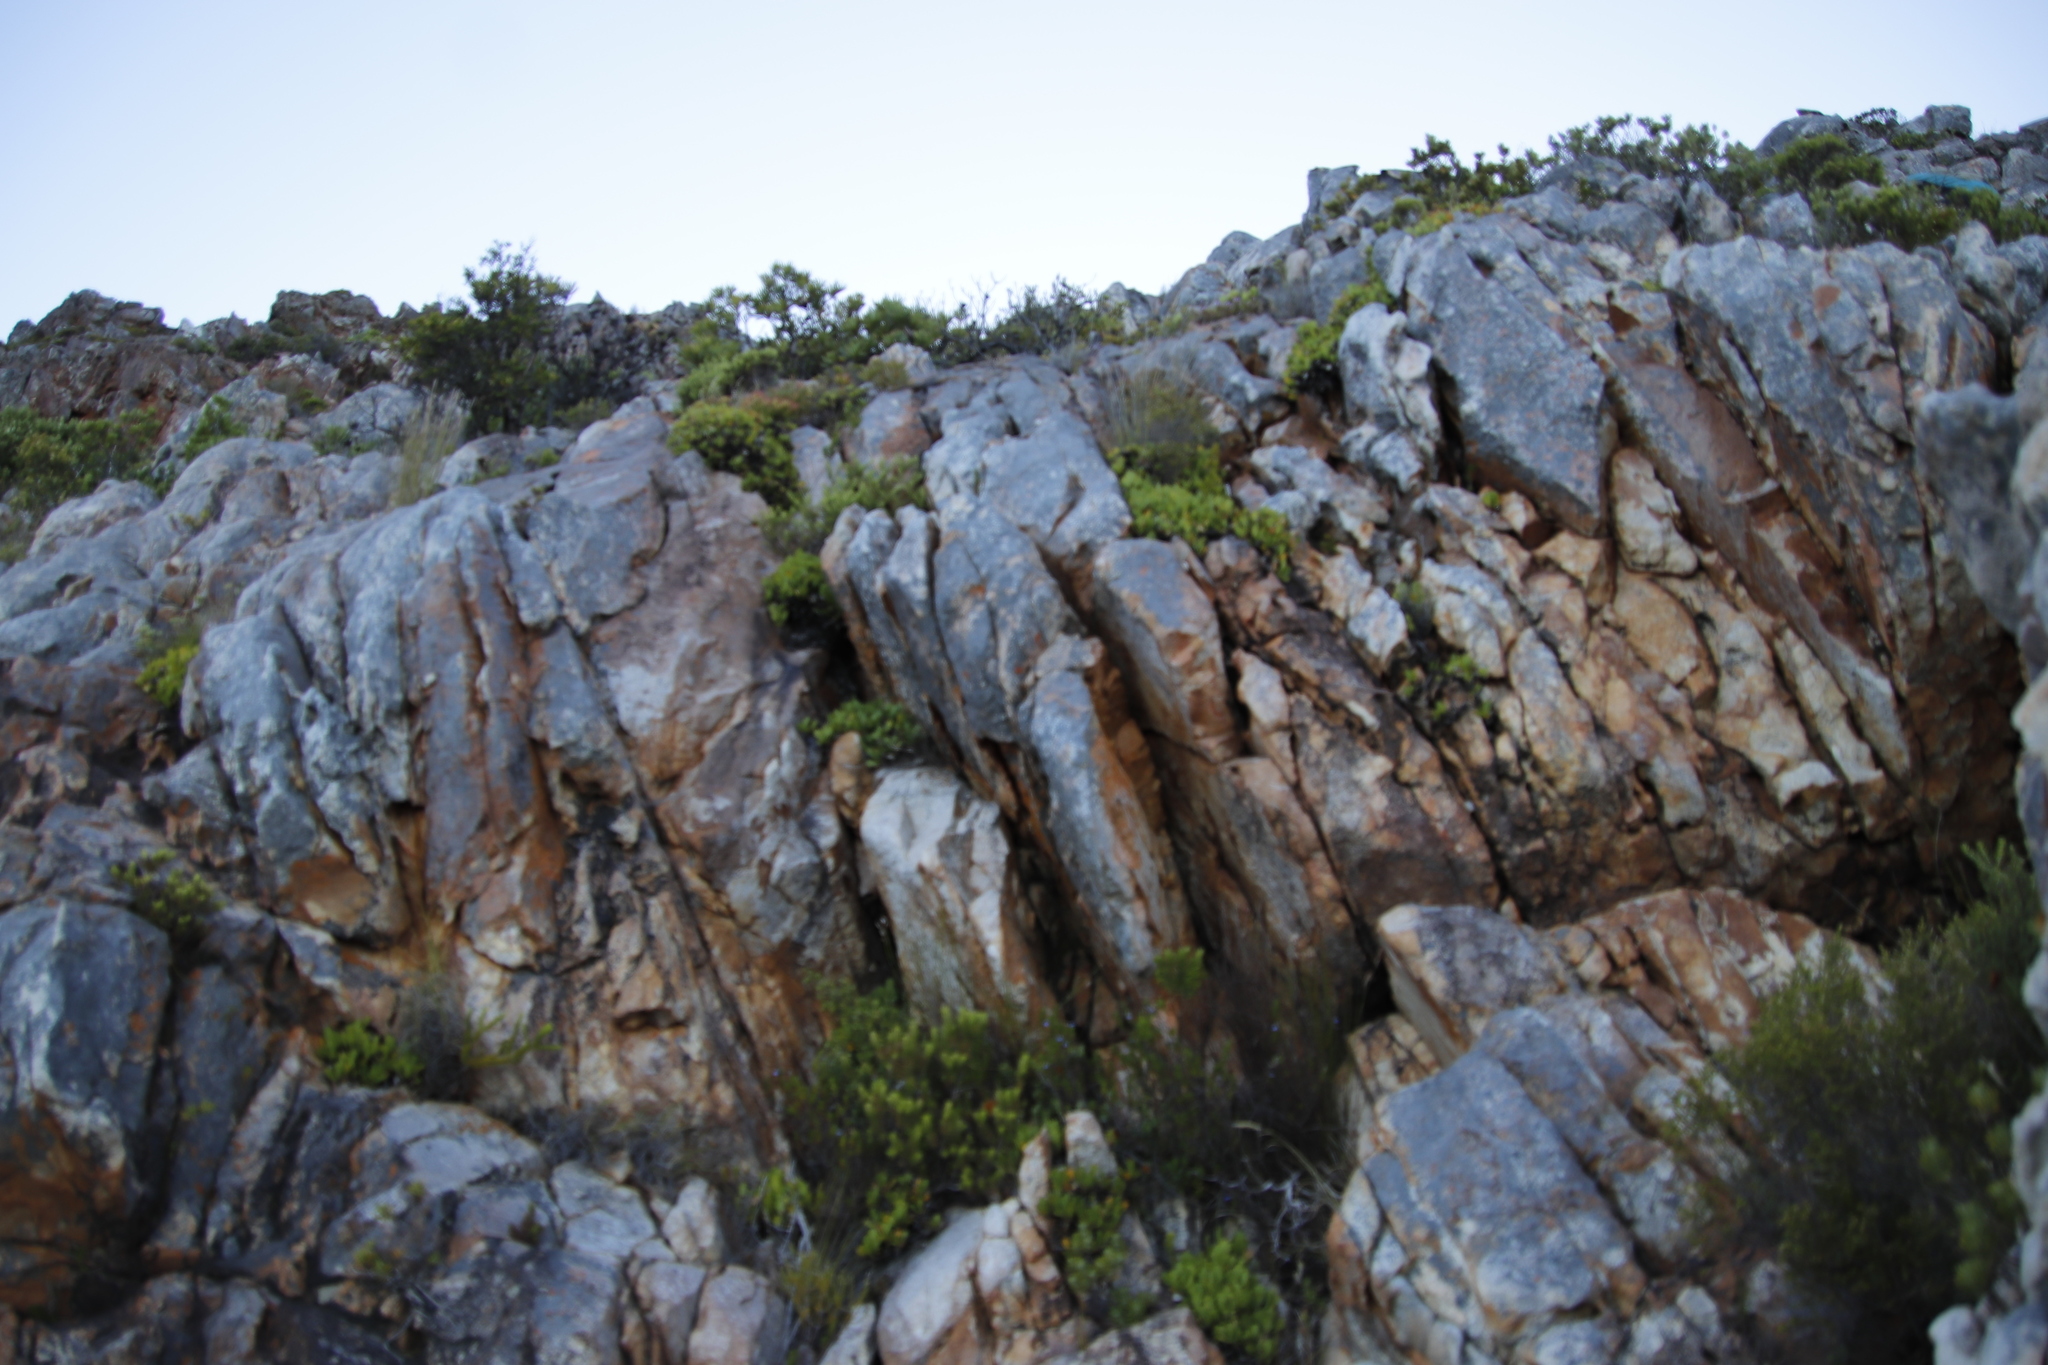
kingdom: Plantae
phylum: Tracheophyta
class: Magnoliopsida
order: Apiales
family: Apiaceae
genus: Centella
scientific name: Centella triloba
